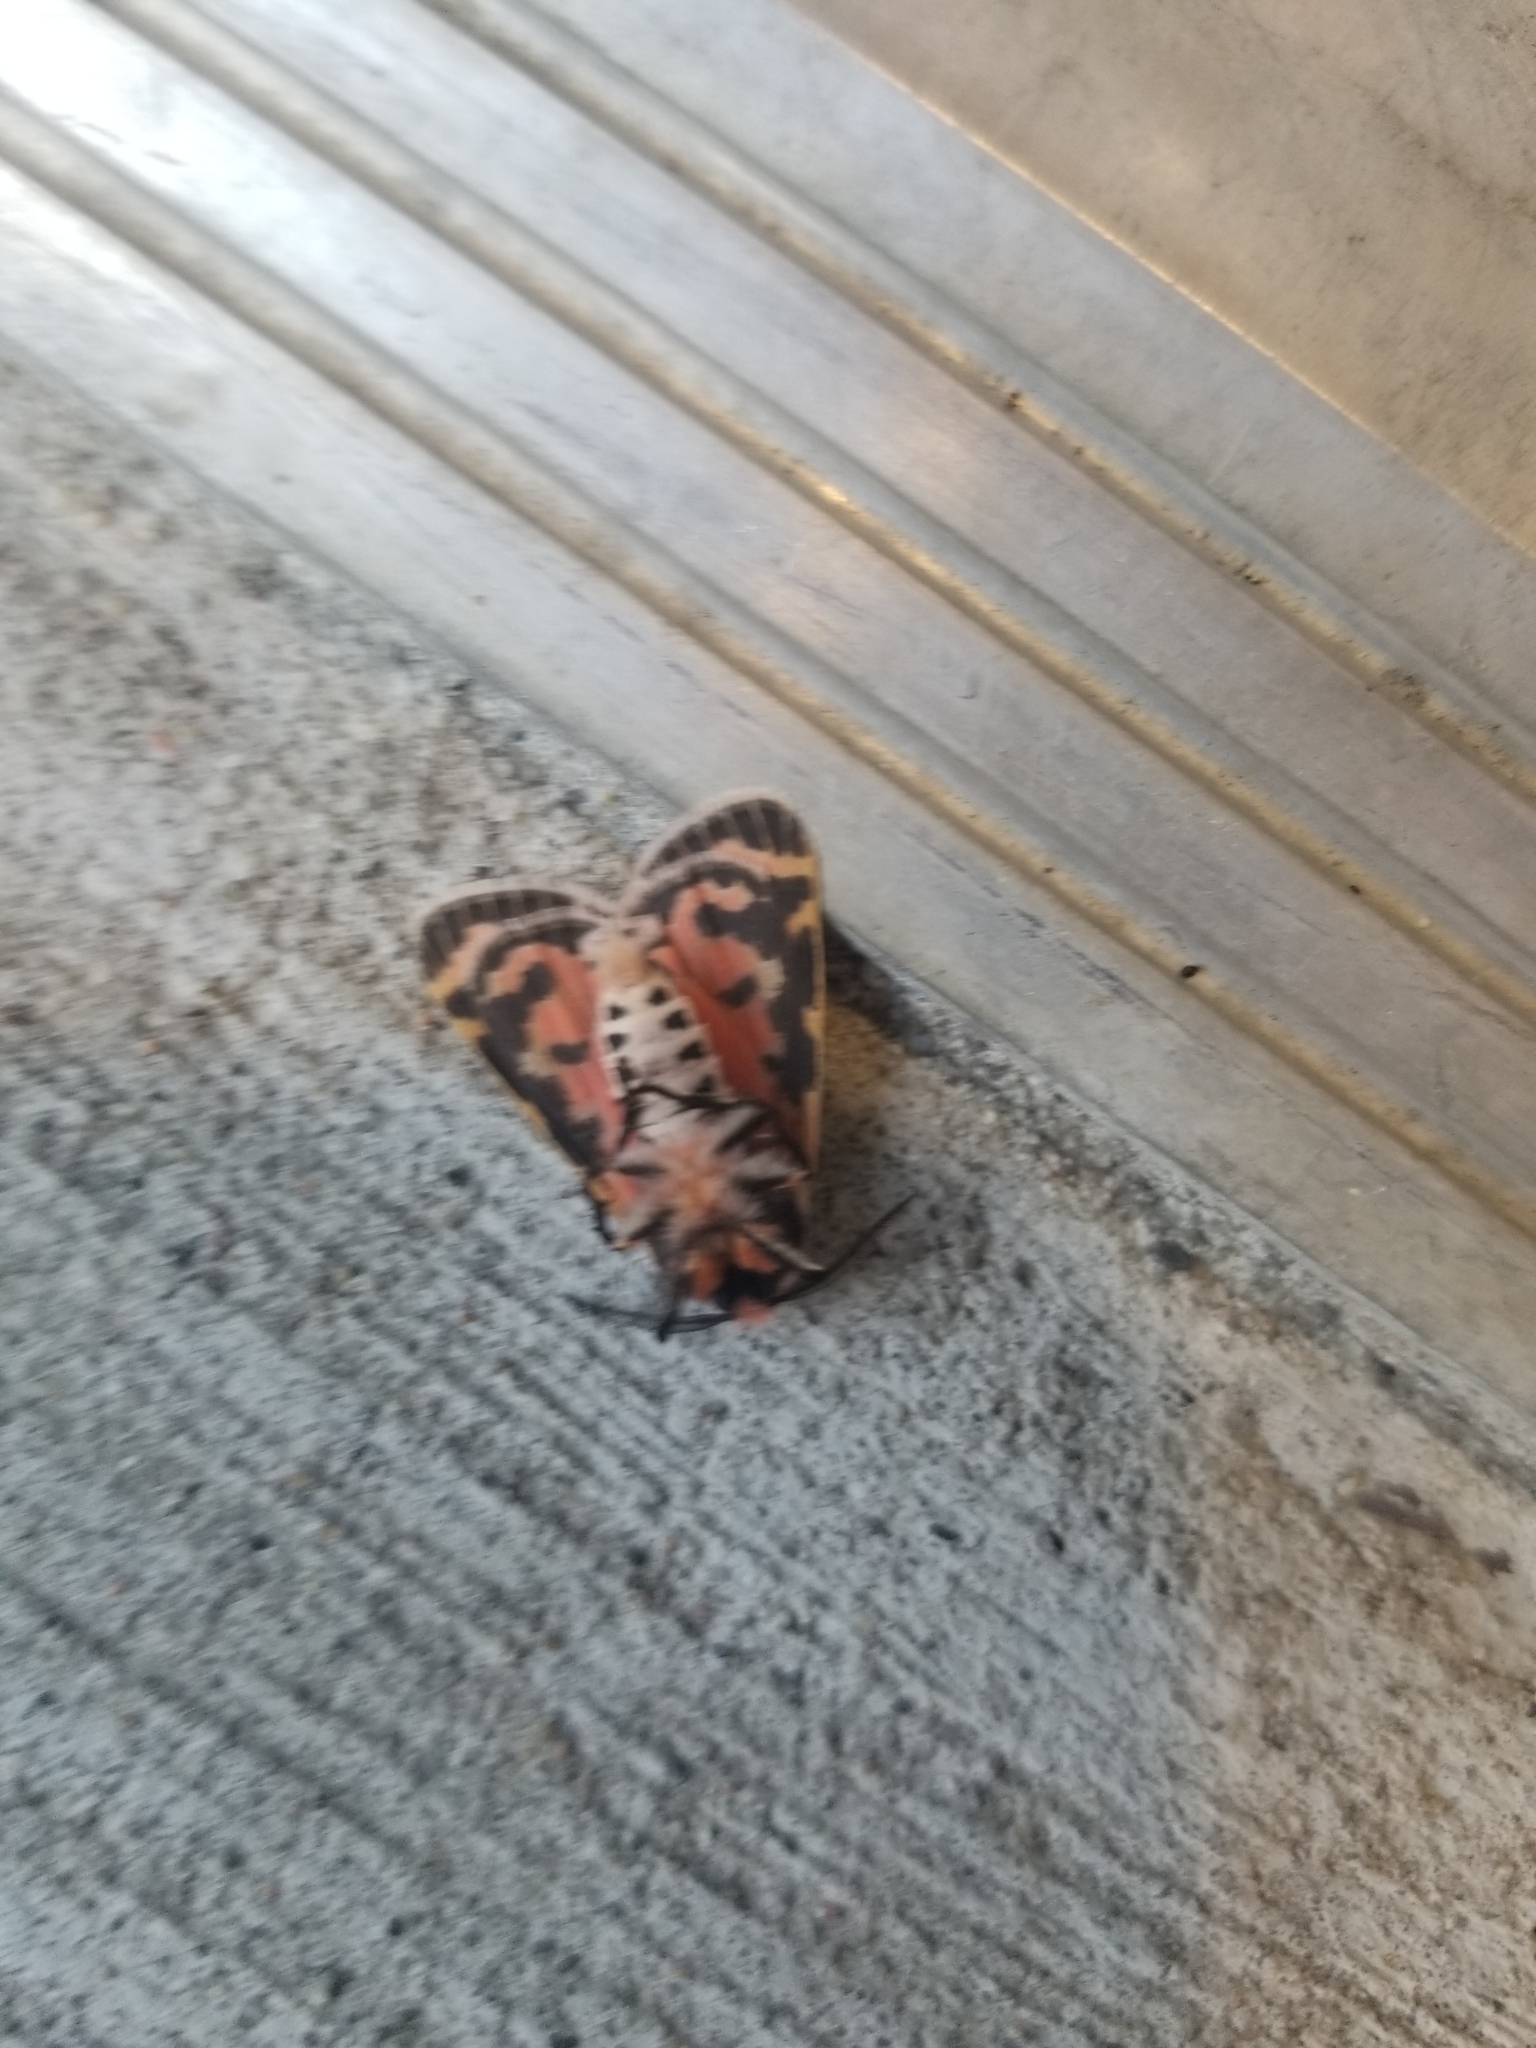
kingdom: Animalia
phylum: Arthropoda
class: Insecta
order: Lepidoptera
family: Erebidae
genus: Apantesis
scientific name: Apantesis
